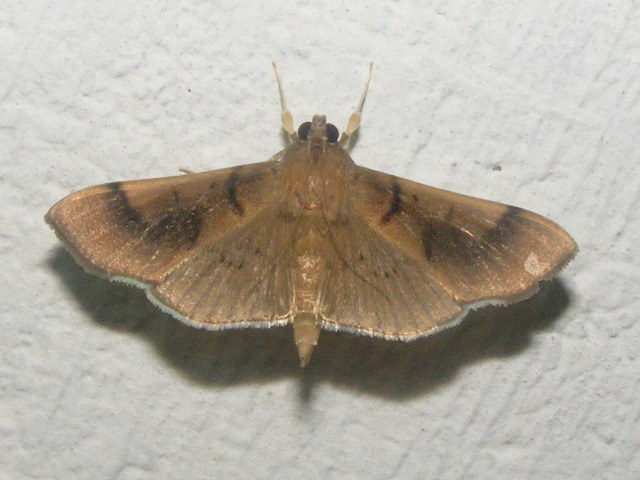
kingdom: Animalia
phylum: Arthropoda
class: Insecta
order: Lepidoptera
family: Crambidae
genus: Omiodes
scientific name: Omiodes
